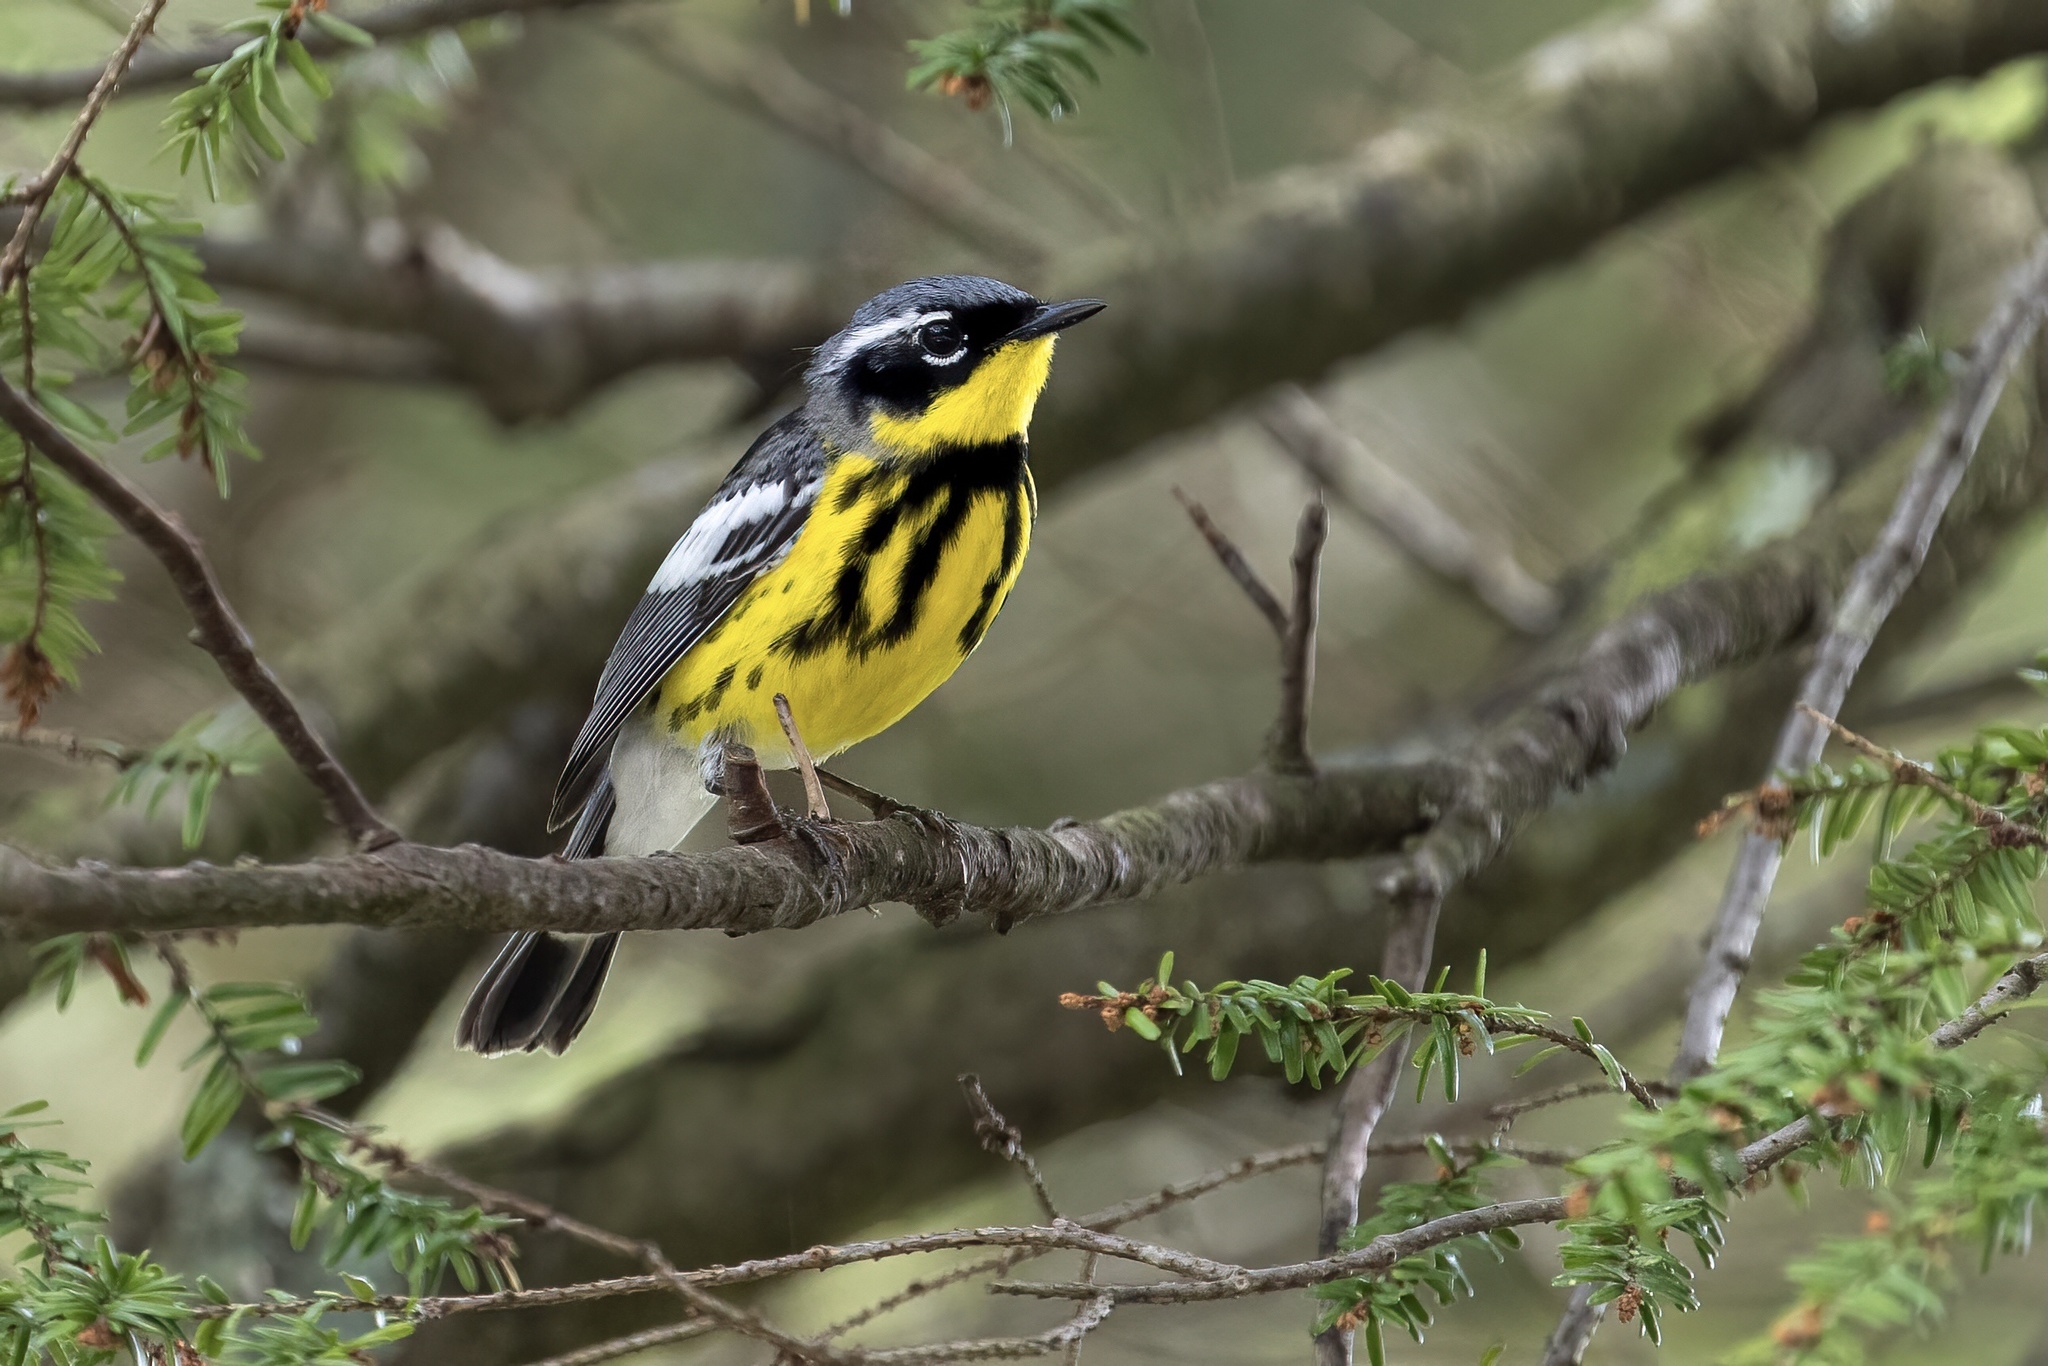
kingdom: Animalia
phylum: Chordata
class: Aves
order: Passeriformes
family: Parulidae
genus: Setophaga
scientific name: Setophaga magnolia
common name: Magnolia warbler
